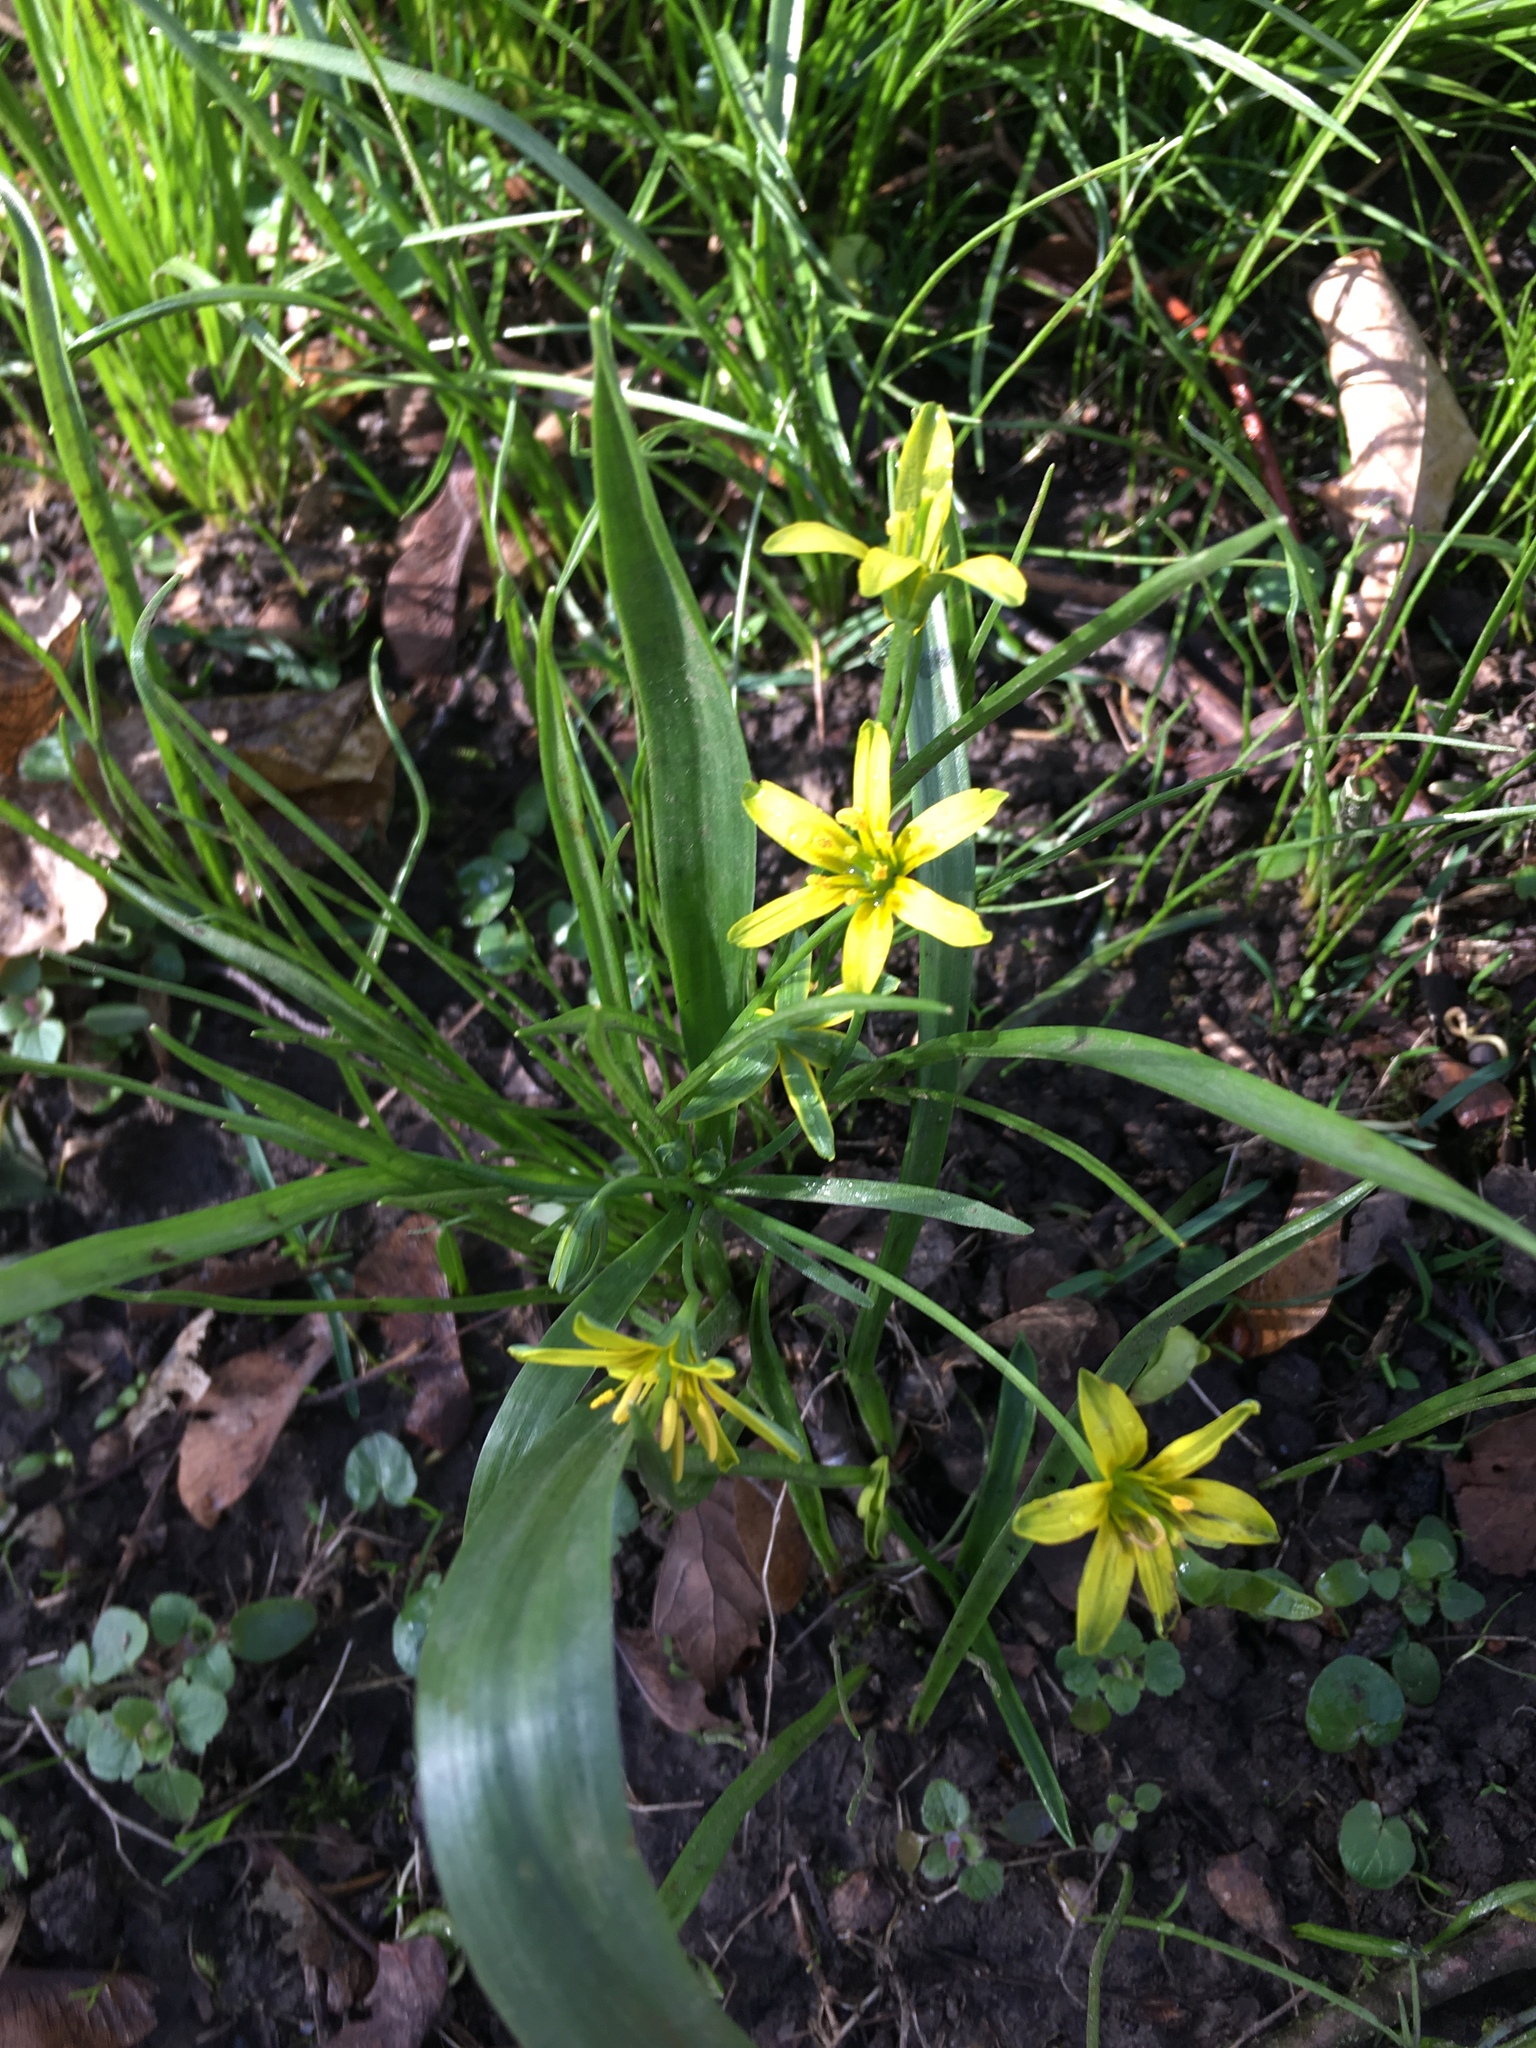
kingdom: Plantae
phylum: Tracheophyta
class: Liliopsida
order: Liliales
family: Liliaceae
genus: Gagea
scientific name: Gagea lutea
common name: Yellow star-of-bethlehem
